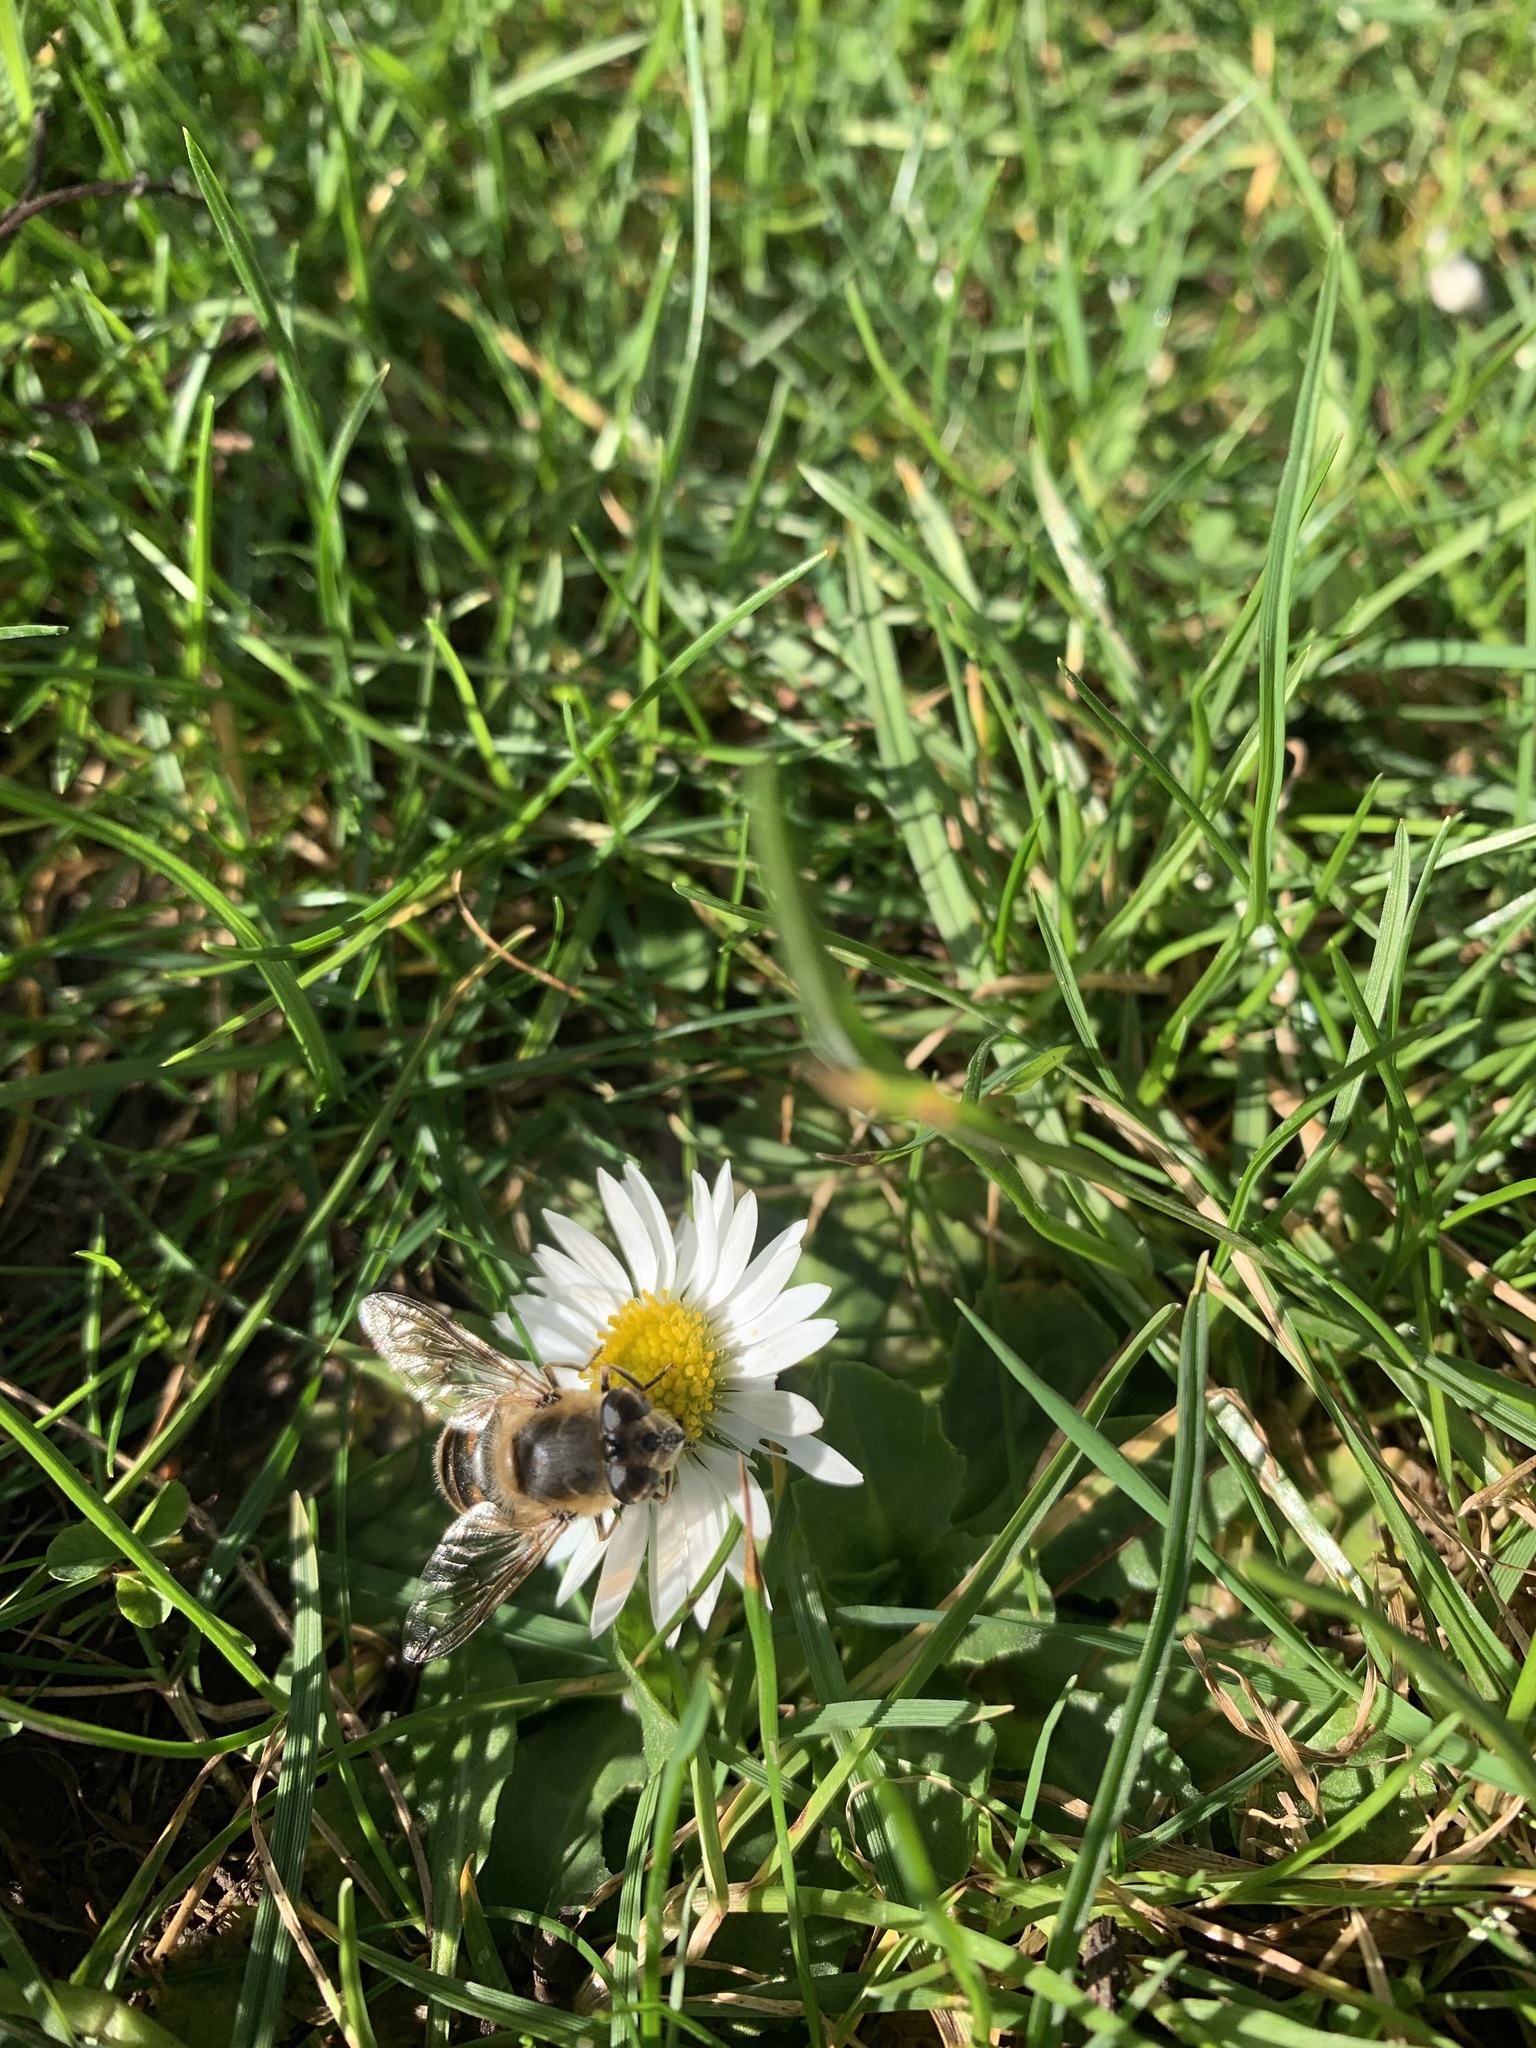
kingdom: Animalia
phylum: Arthropoda
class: Insecta
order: Diptera
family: Syrphidae
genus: Eristalis
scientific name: Eristalis tenax
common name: Drone fly
